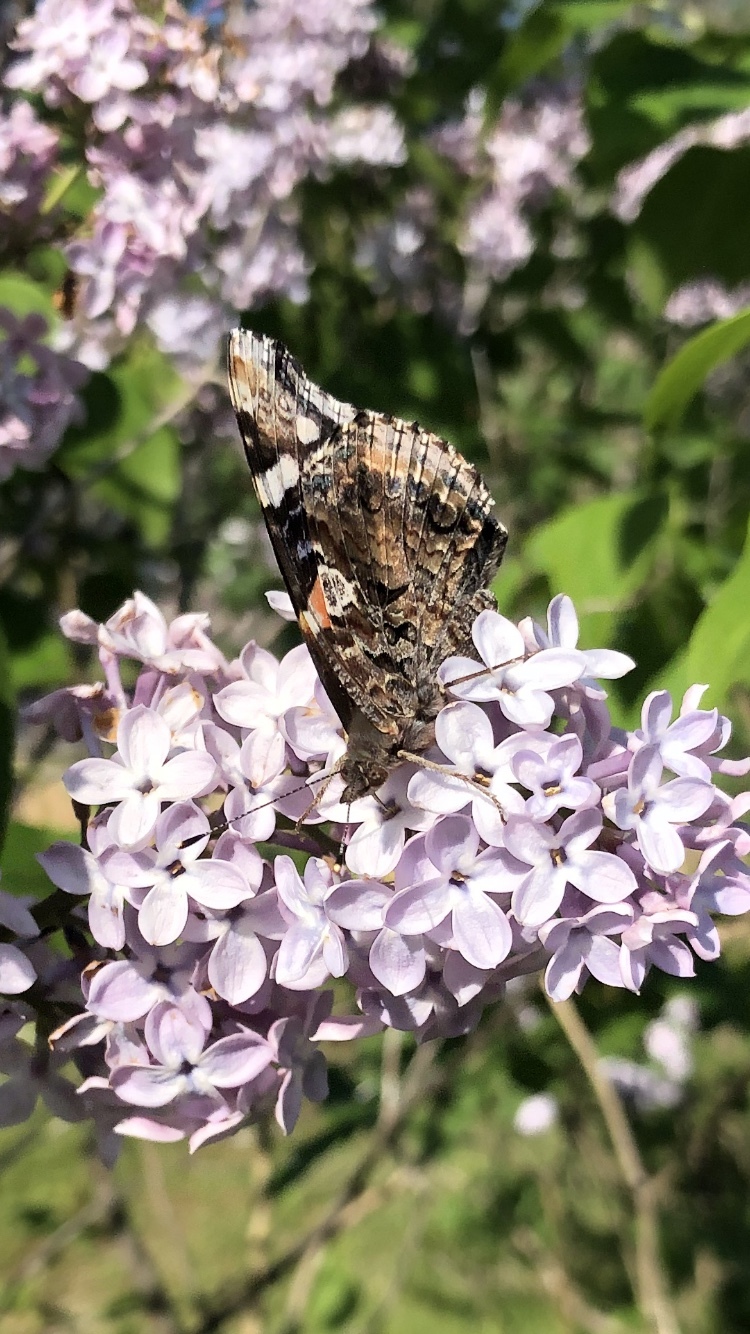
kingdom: Animalia
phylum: Arthropoda
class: Insecta
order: Lepidoptera
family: Nymphalidae
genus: Vanessa
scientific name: Vanessa atalanta
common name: Red admiral
